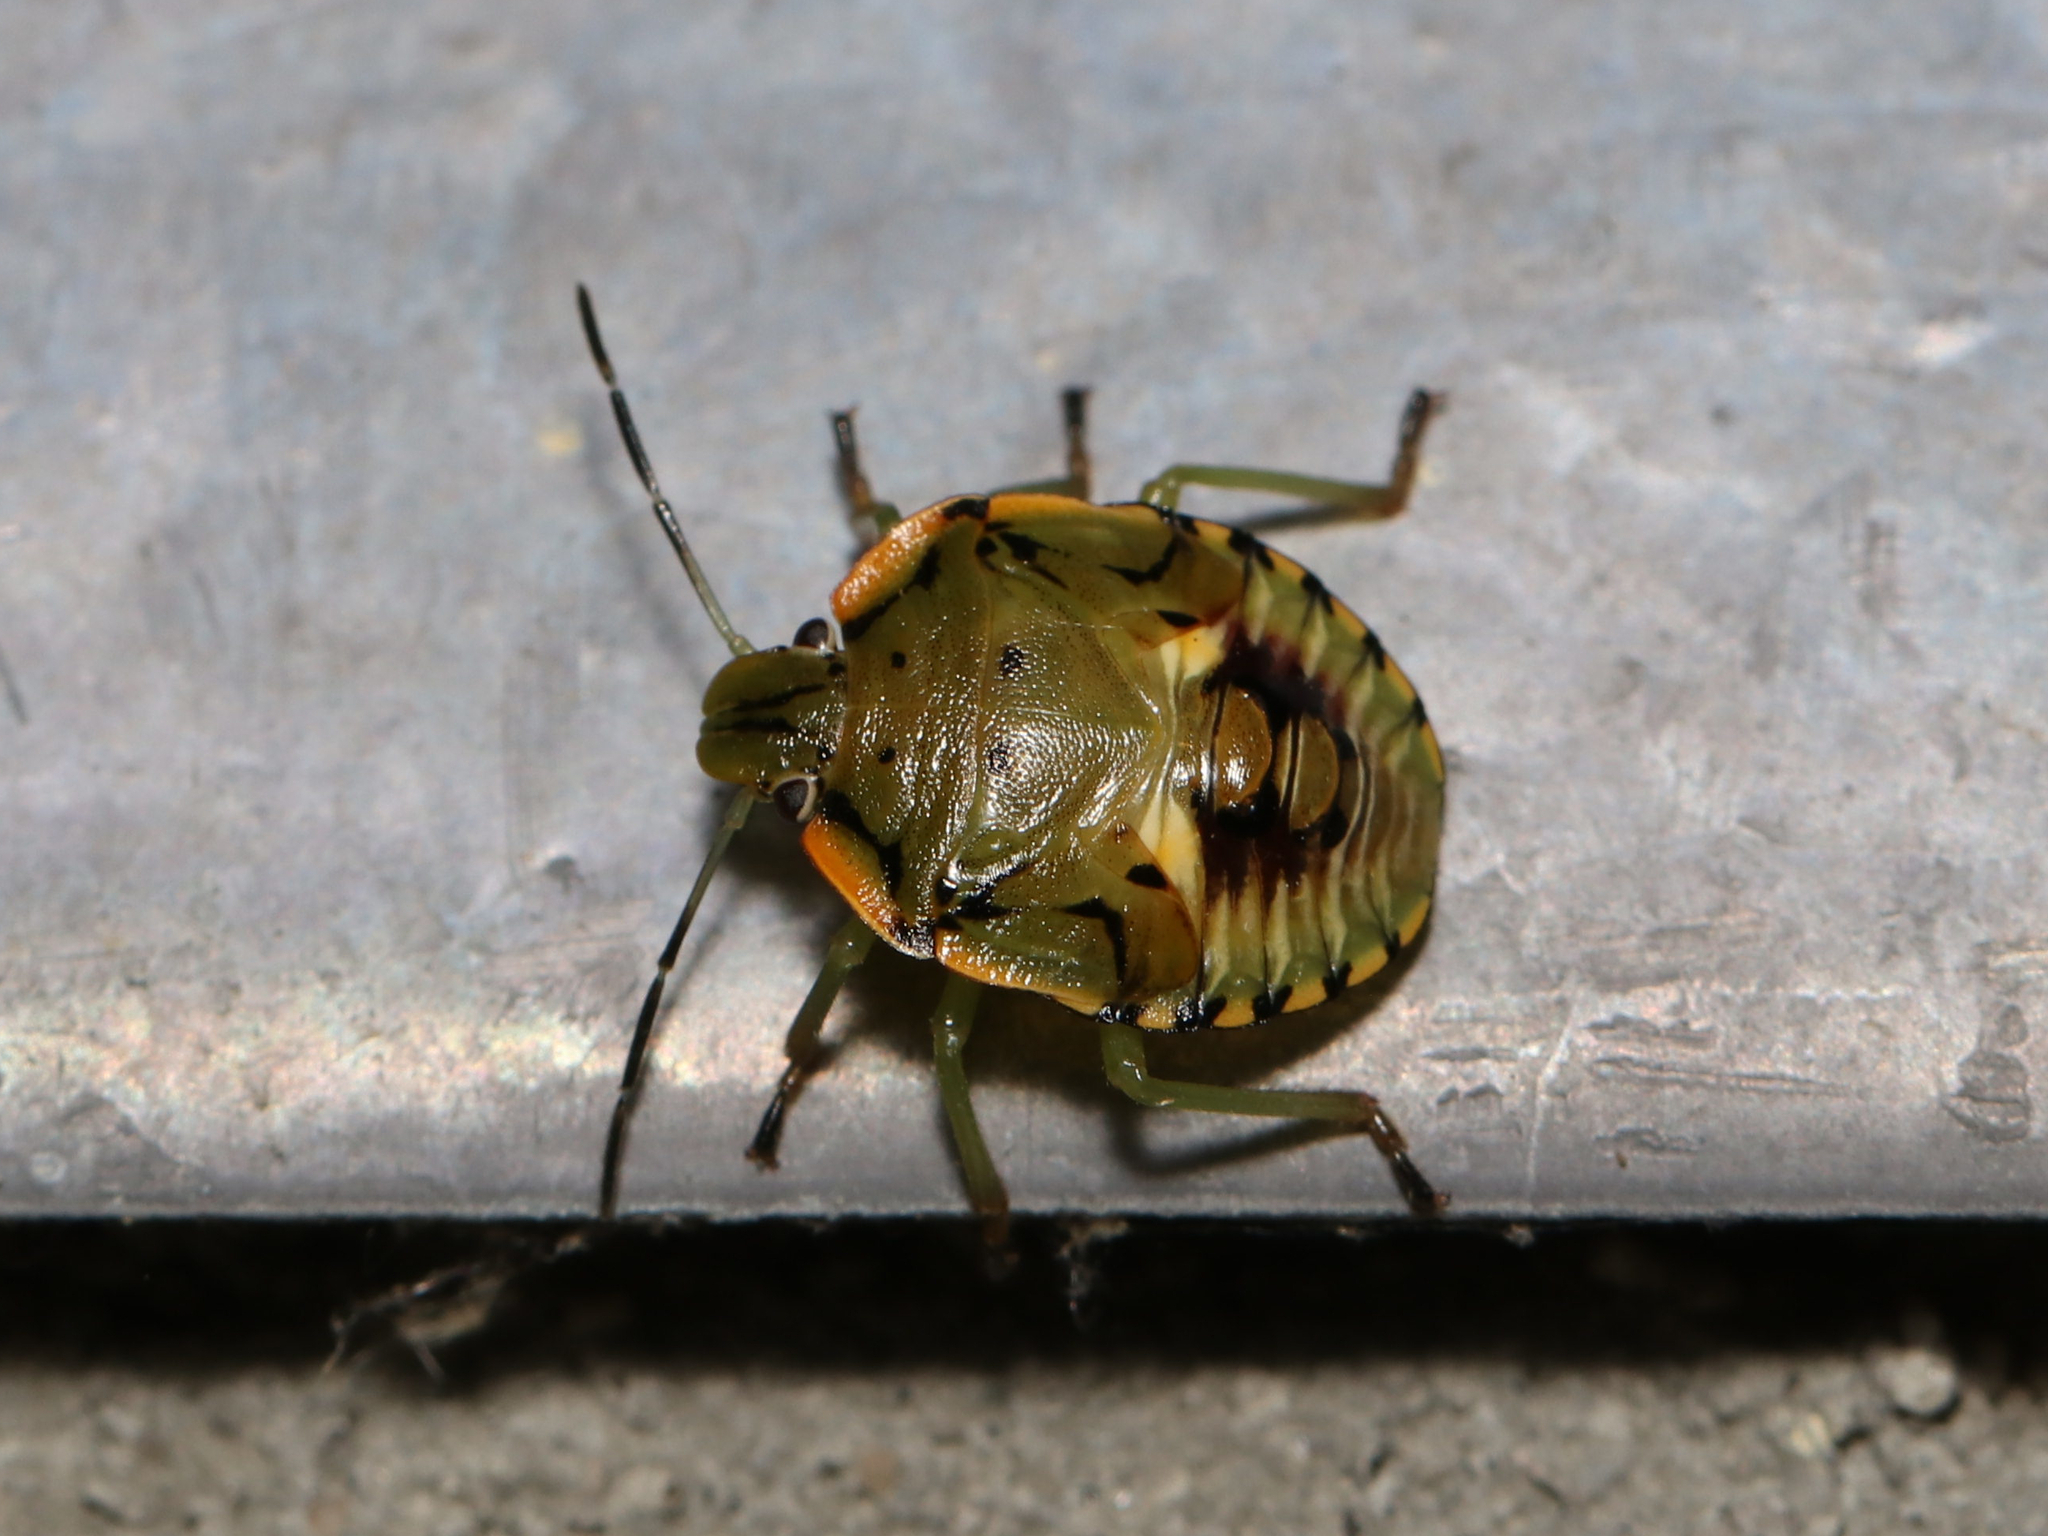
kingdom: Animalia
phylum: Arthropoda
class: Insecta
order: Hemiptera
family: Pentatomidae
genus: Chinavia
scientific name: Chinavia hilaris
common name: Green stink bug
